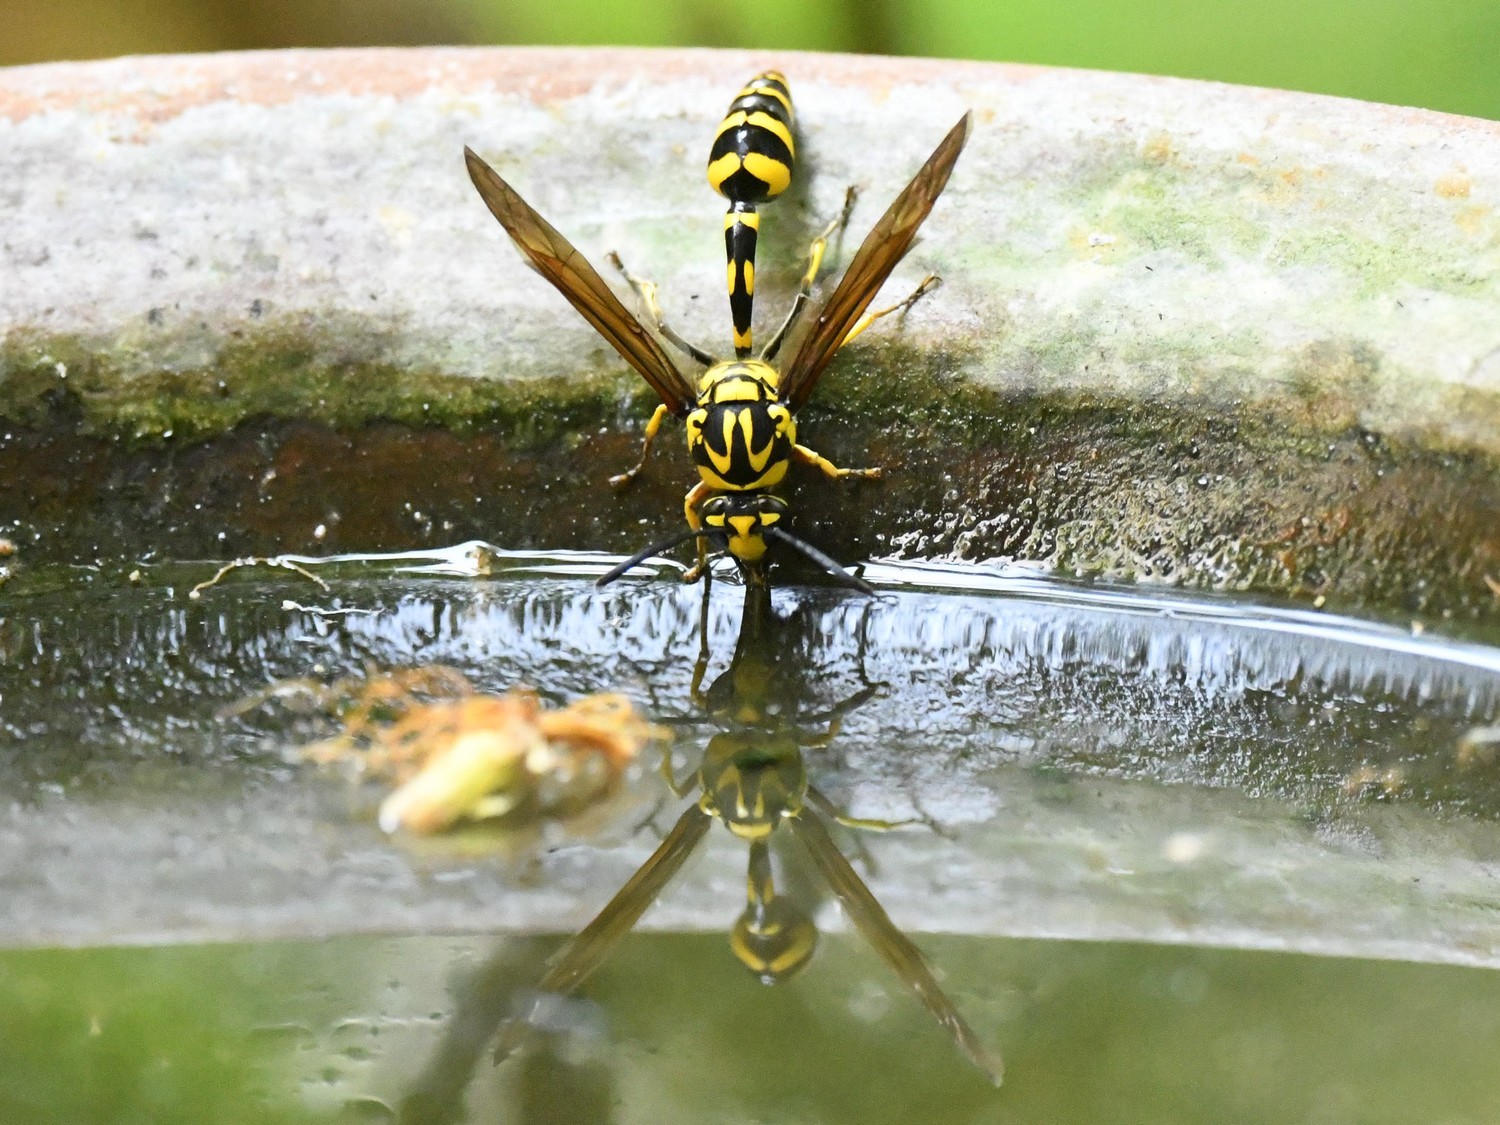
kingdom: Animalia
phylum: Arthropoda
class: Insecta
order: Hymenoptera
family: Eumenidae
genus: Phimenes
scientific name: Phimenes flavopictus
